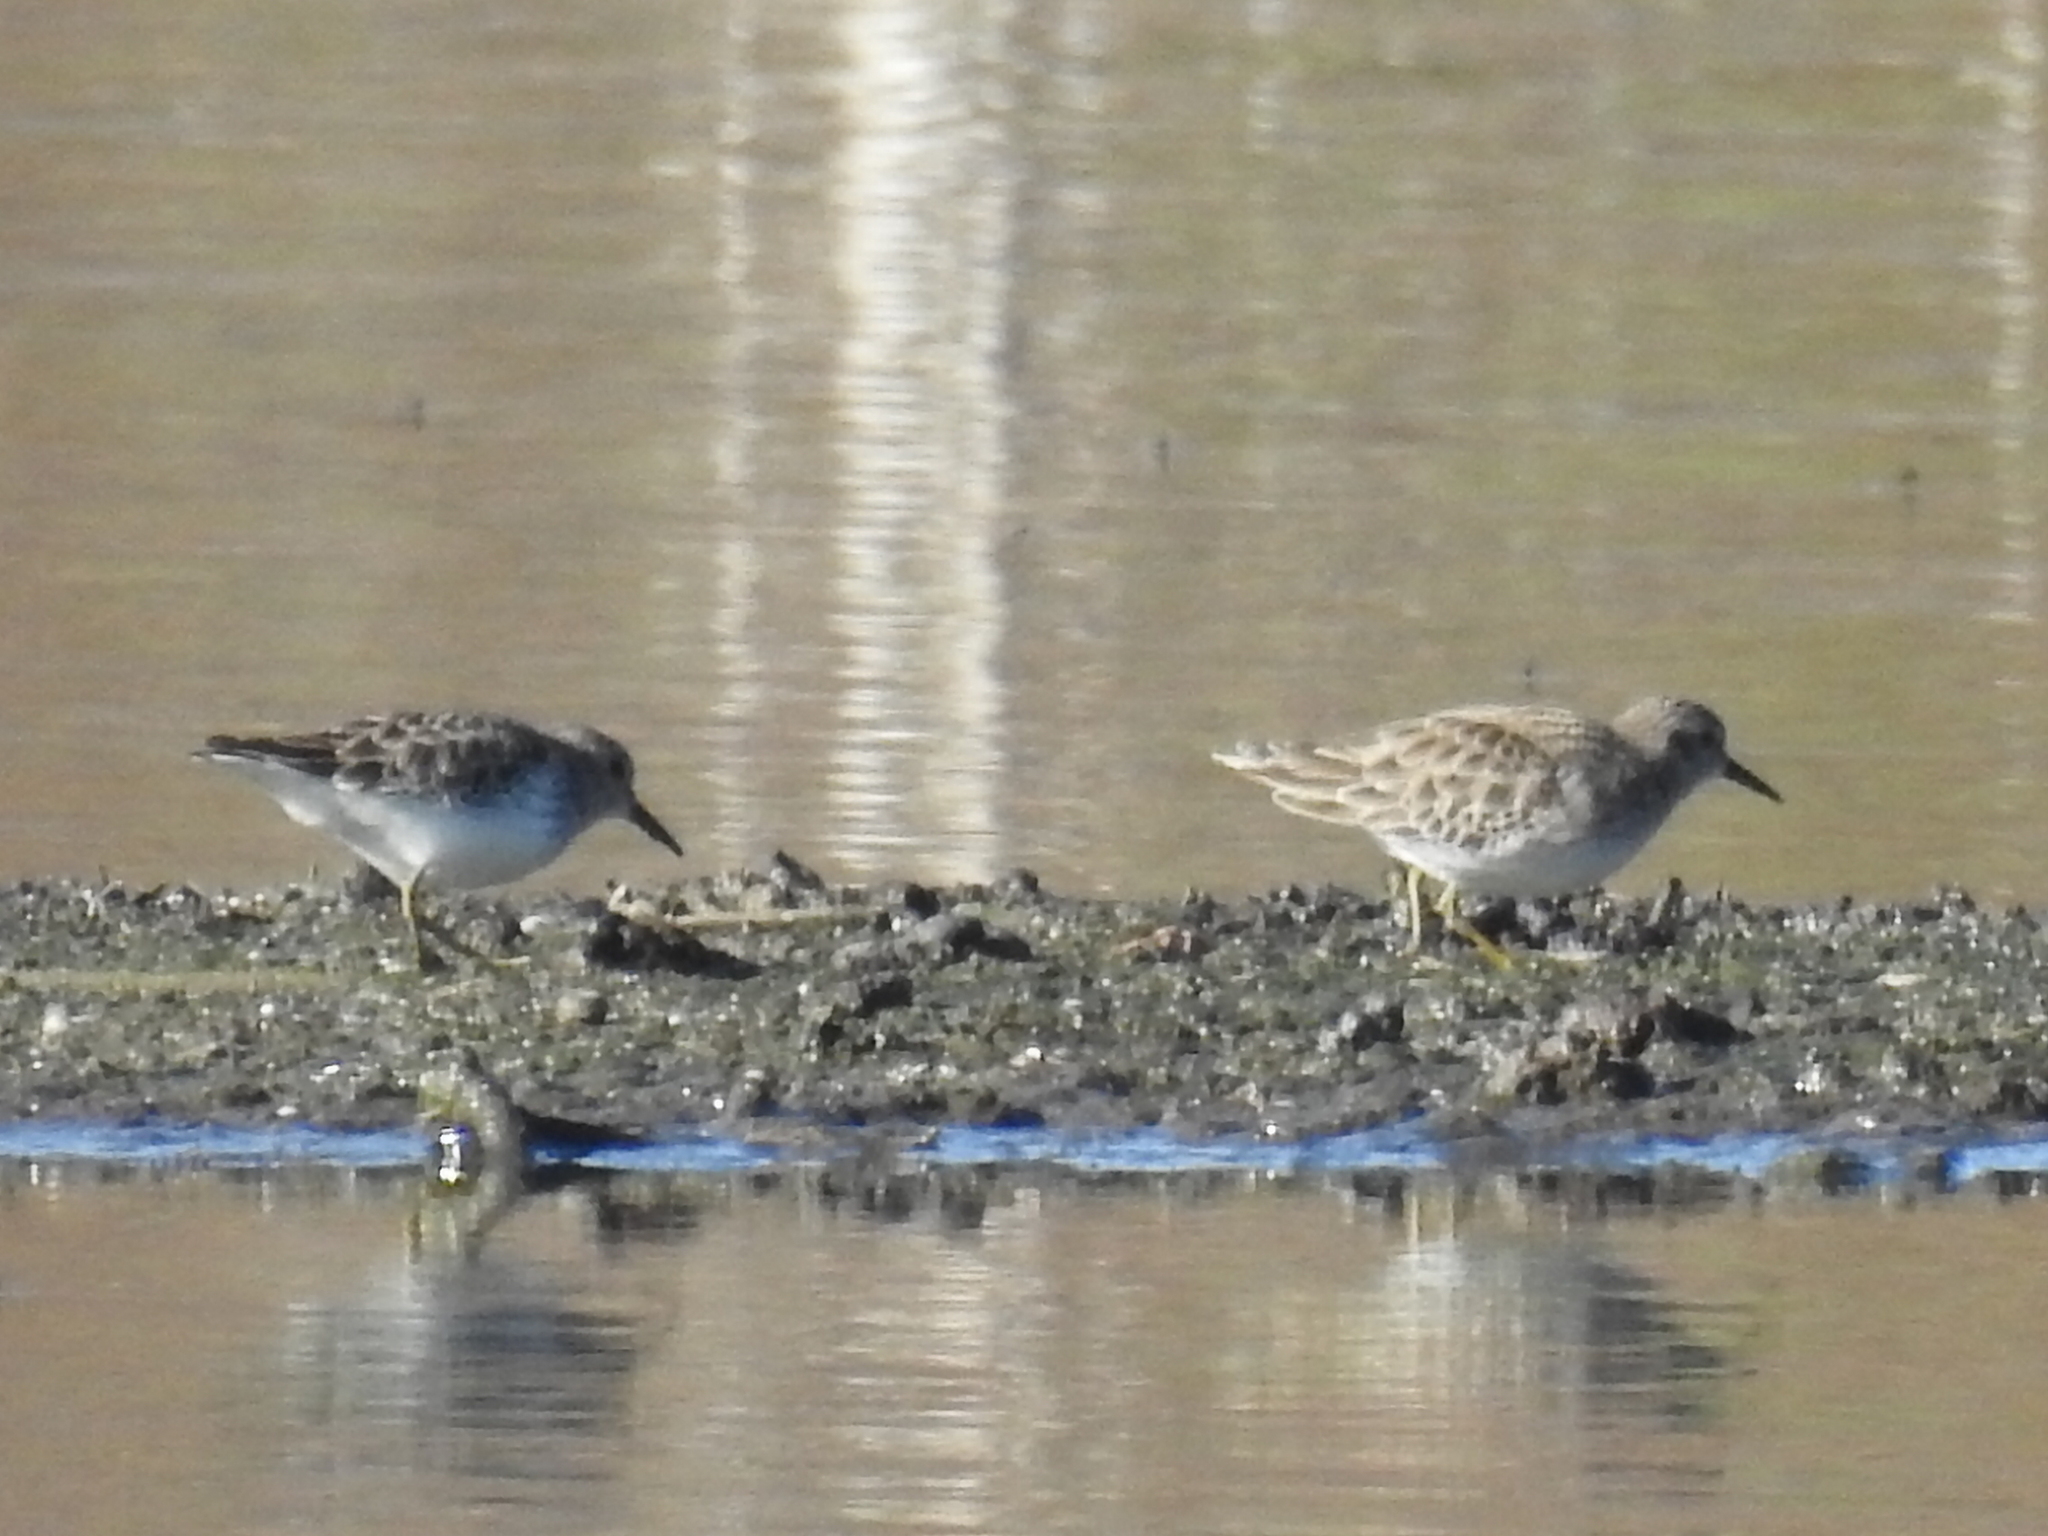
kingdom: Animalia
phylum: Chordata
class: Aves
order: Charadriiformes
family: Scolopacidae
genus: Calidris
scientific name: Calidris minutilla
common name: Least sandpiper
